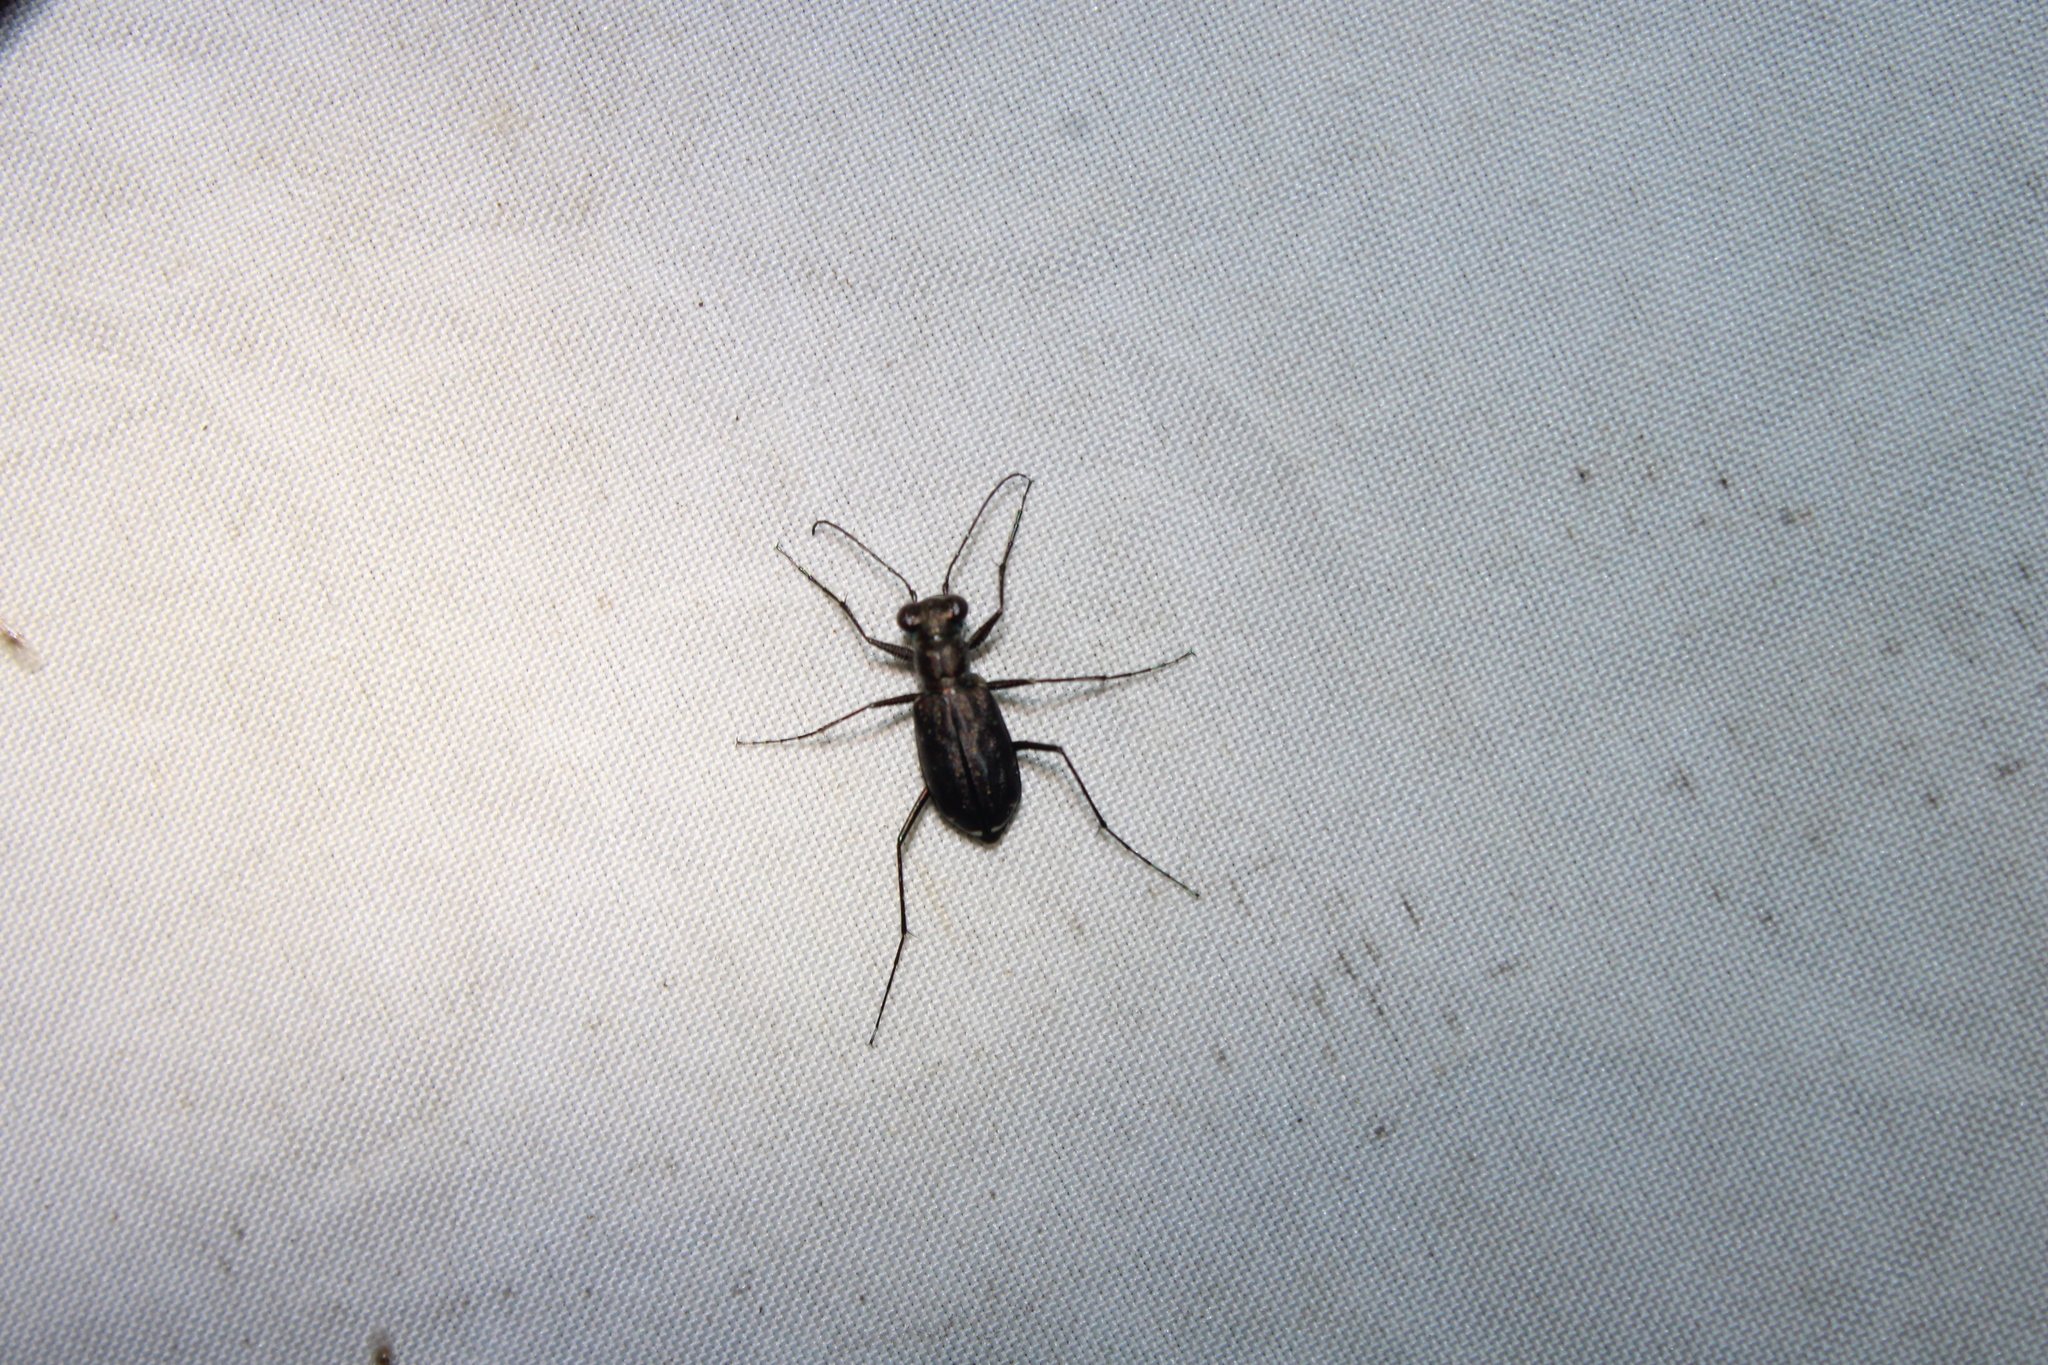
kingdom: Animalia
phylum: Arthropoda
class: Insecta
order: Coleoptera
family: Carabidae
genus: Cicindela
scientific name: Cicindela punctulata
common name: Punctured tiger beetle
